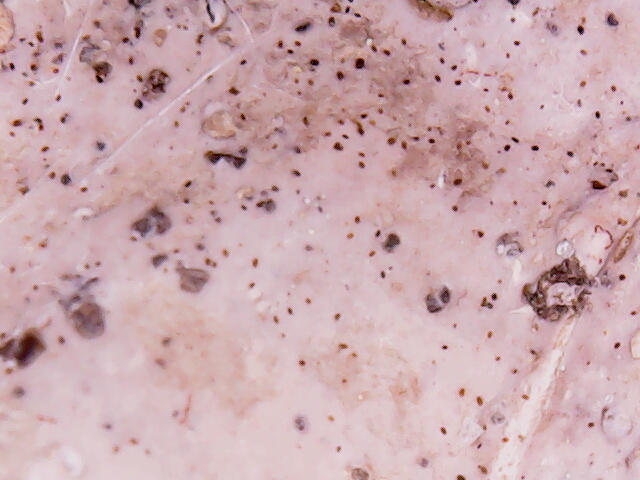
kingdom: Fungi
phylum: Basidiomycota
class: Agaricomycetes
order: Russulales
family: Stereaceae
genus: Stereum
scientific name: Stereum ostrea
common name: False turkeytail
